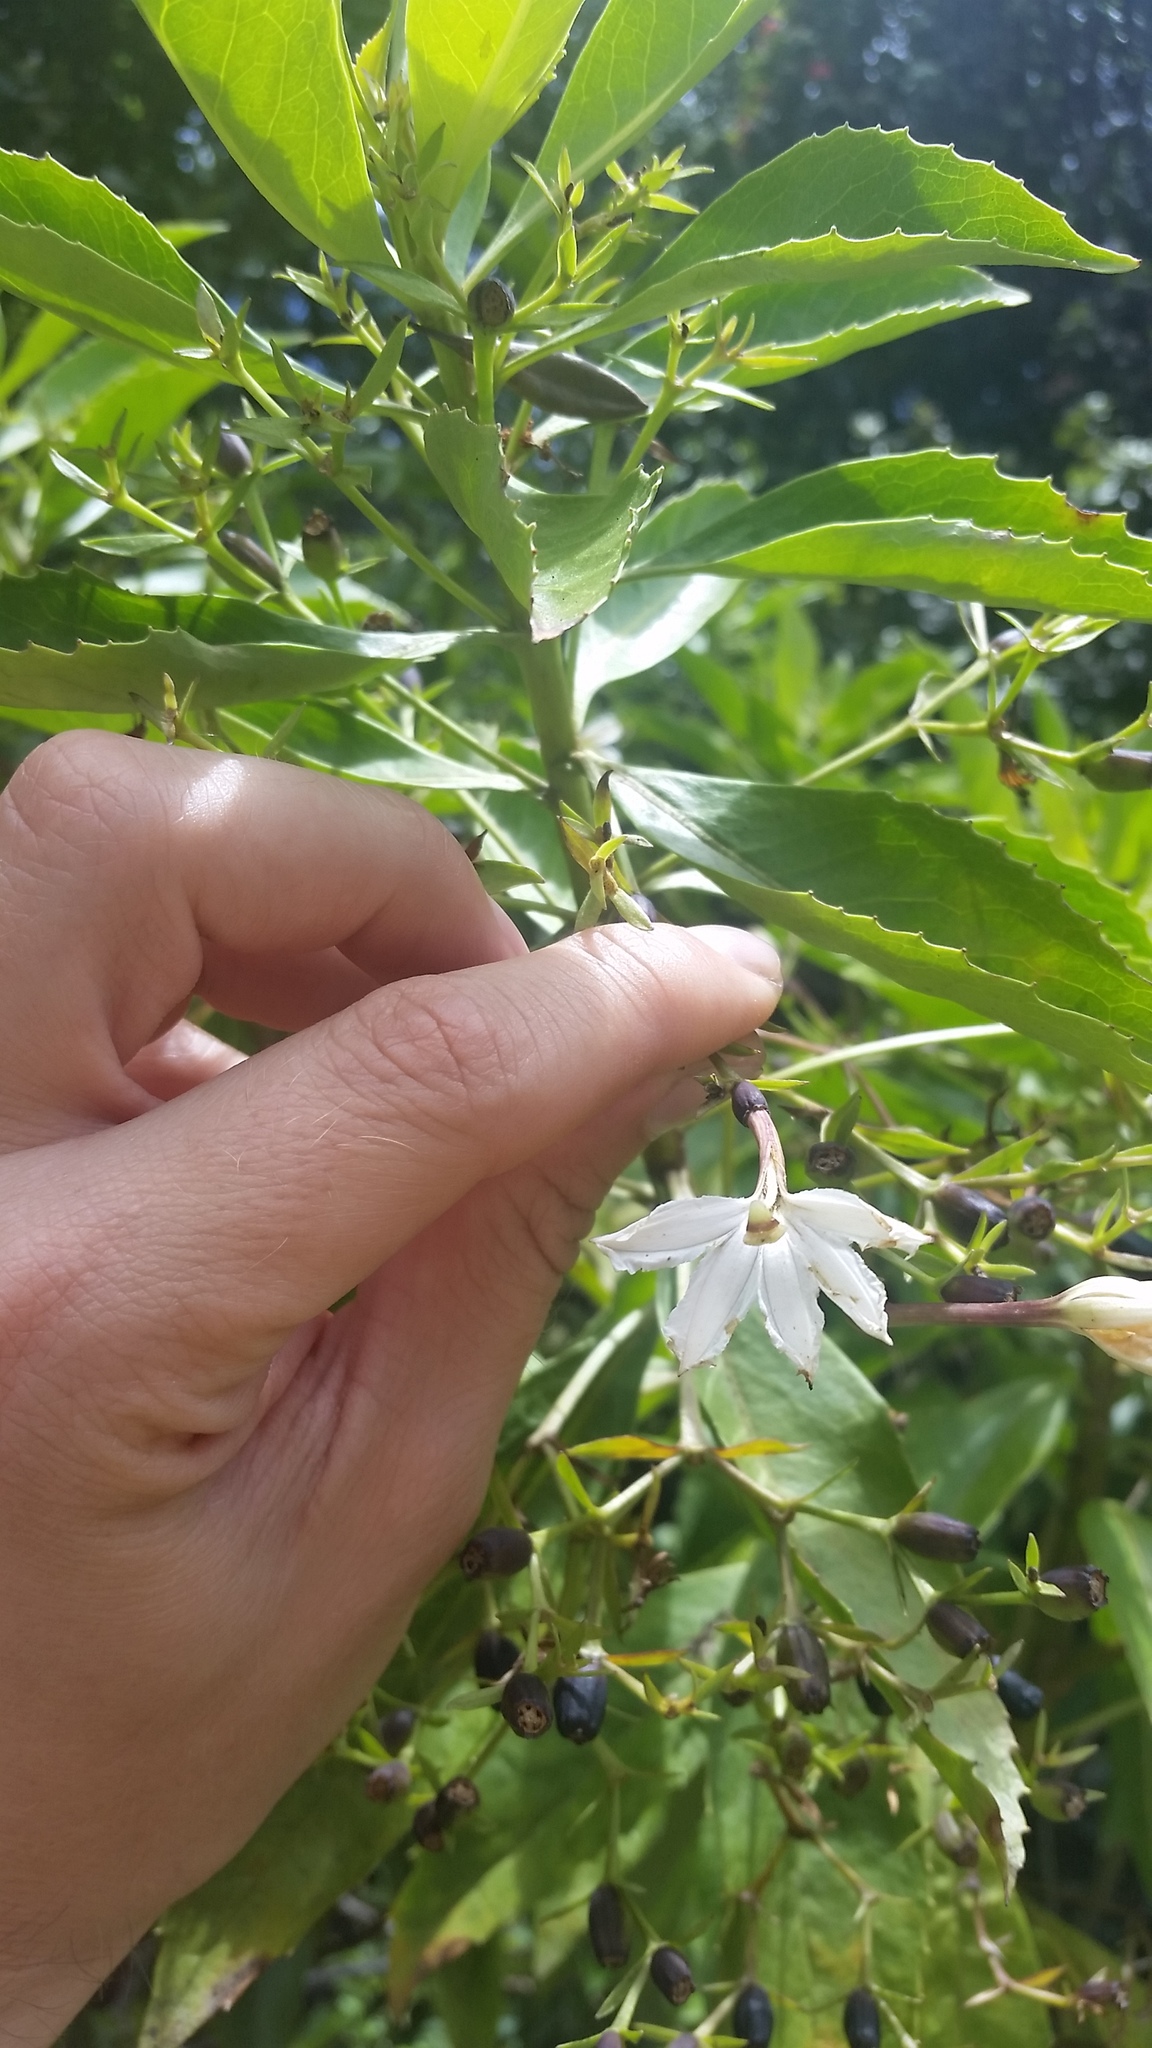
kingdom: Plantae
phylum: Tracheophyta
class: Magnoliopsida
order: Asterales
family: Goodeniaceae
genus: Scaevola
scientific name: Scaevola chamissoniana
